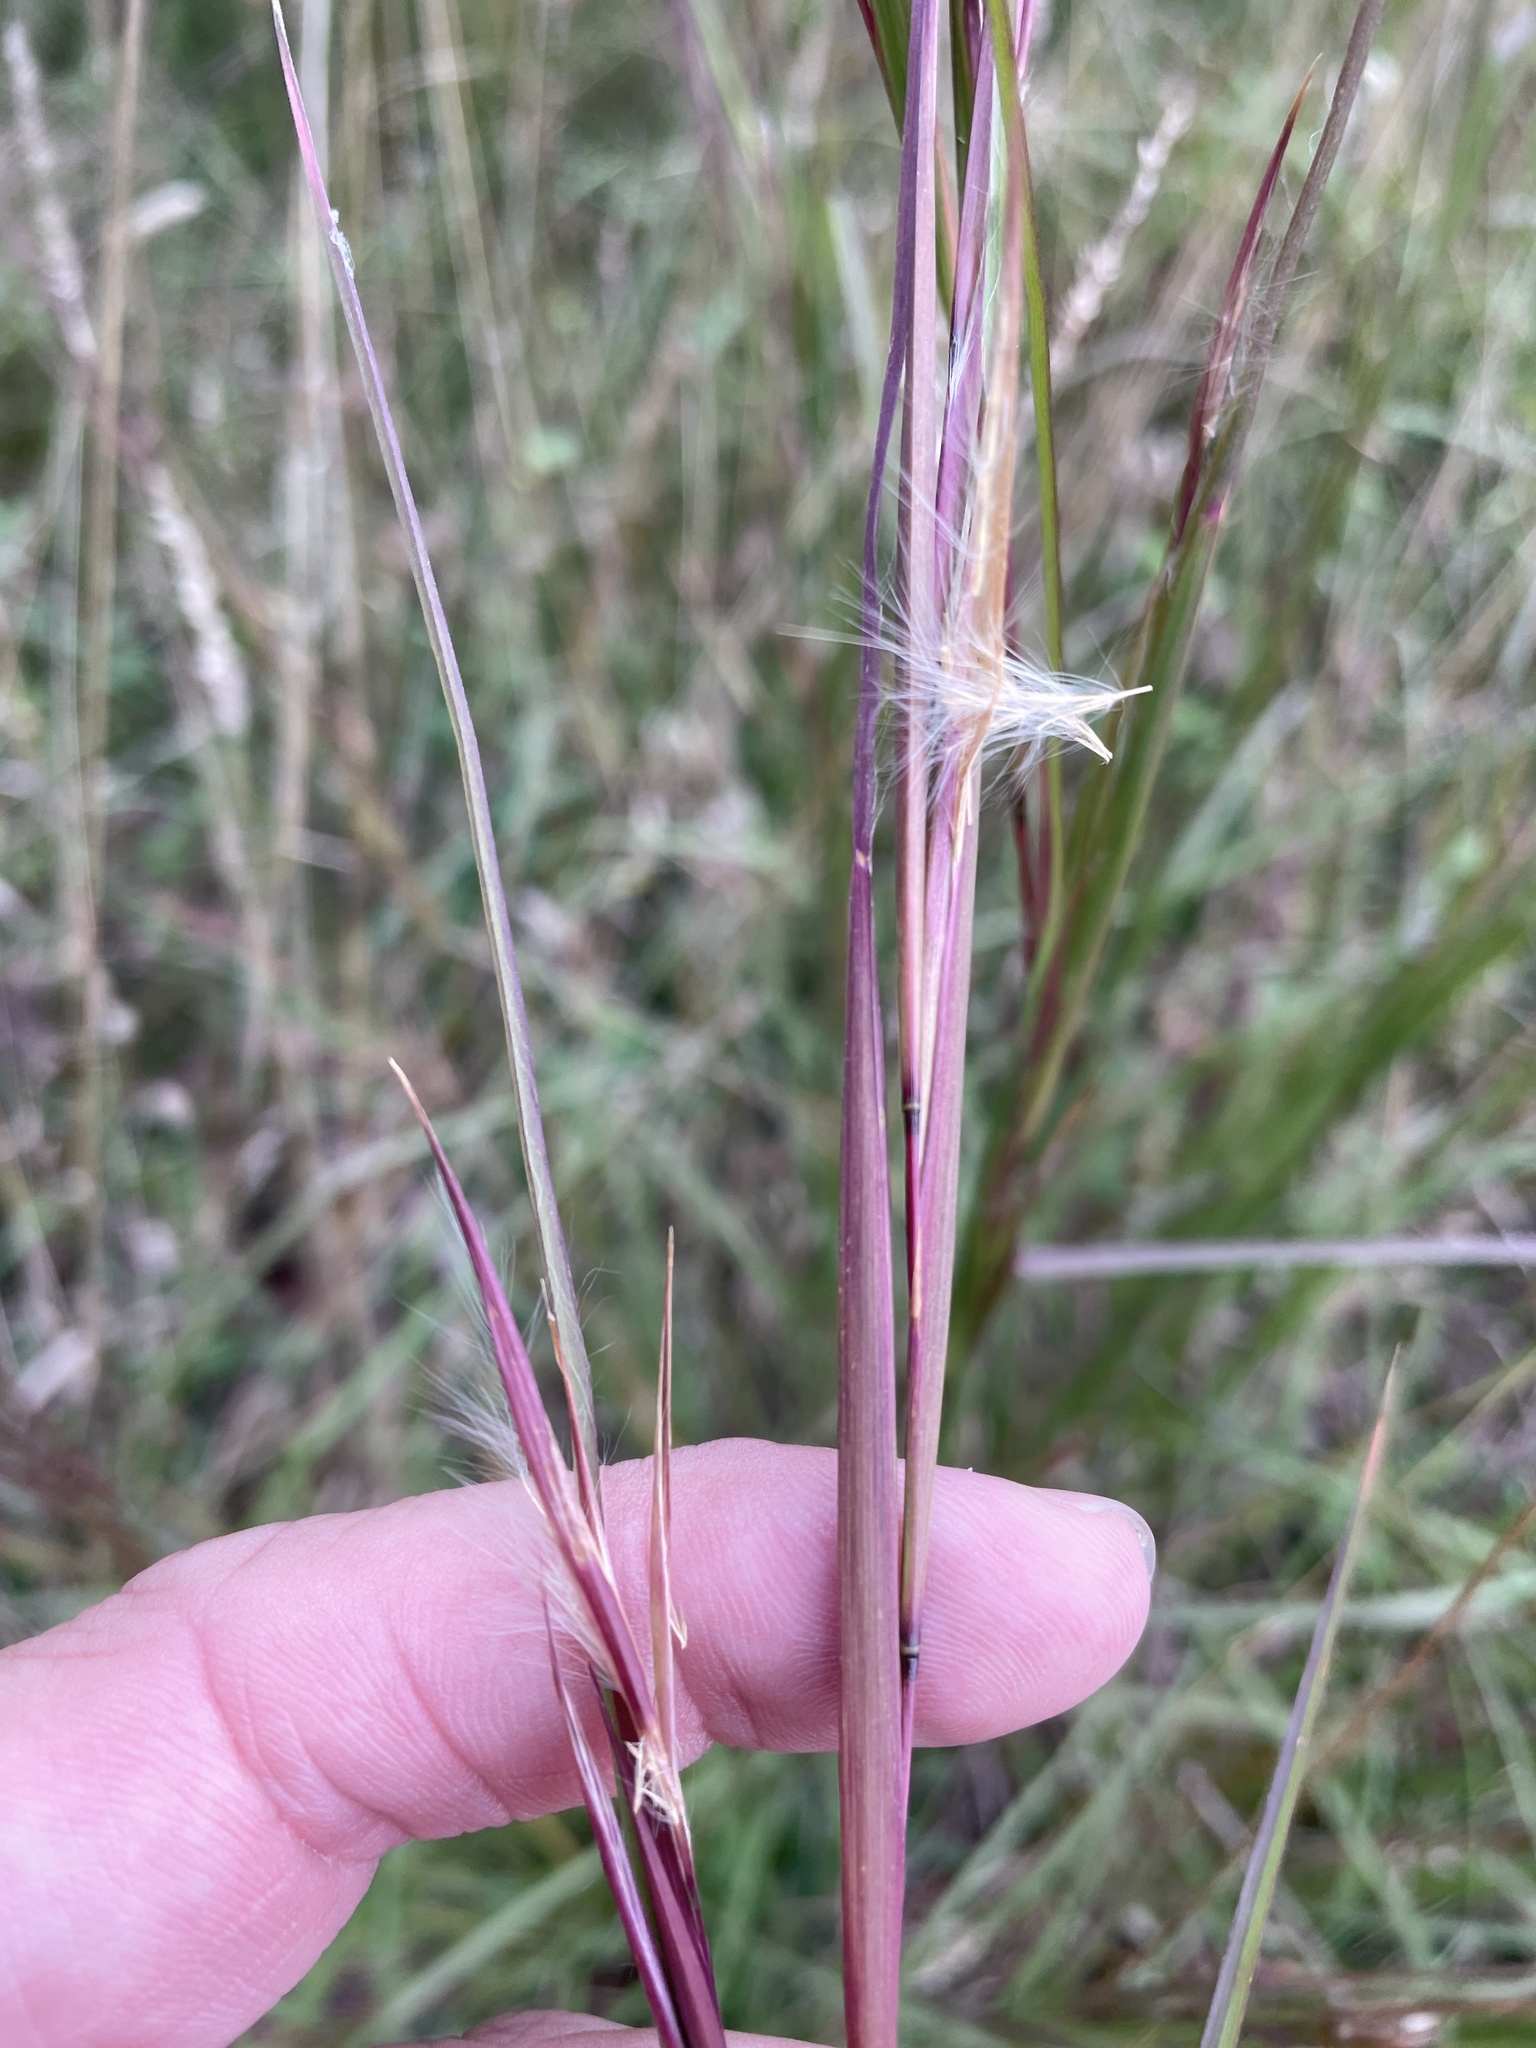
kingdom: Plantae
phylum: Tracheophyta
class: Liliopsida
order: Poales
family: Poaceae
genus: Andropogon
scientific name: Andropogon virginicus
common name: Broomsedge bluestem
